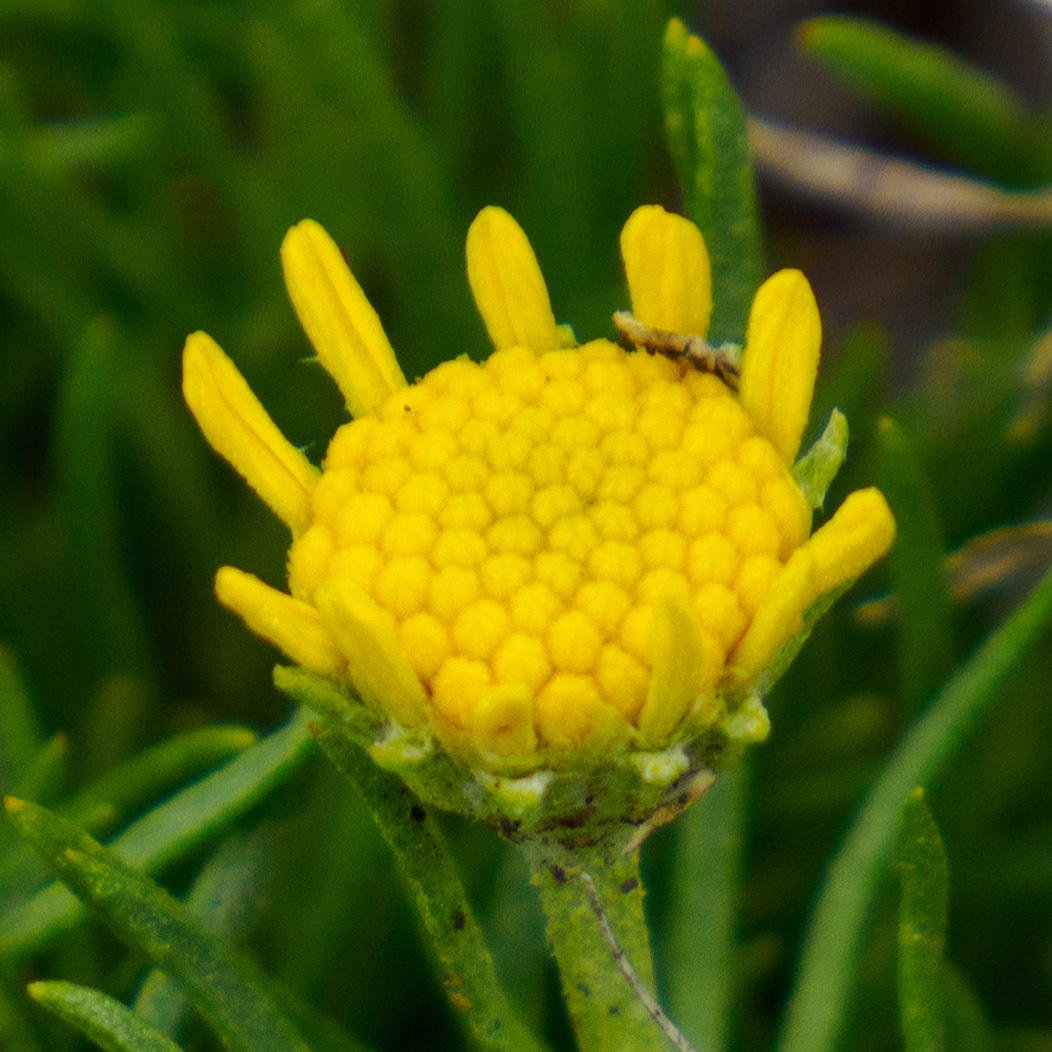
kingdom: Plantae
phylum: Tracheophyta
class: Magnoliopsida
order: Asterales
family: Asteraceae
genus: Hymenoxys
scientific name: Hymenoxys richardsonii
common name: Pingue rubberweed
